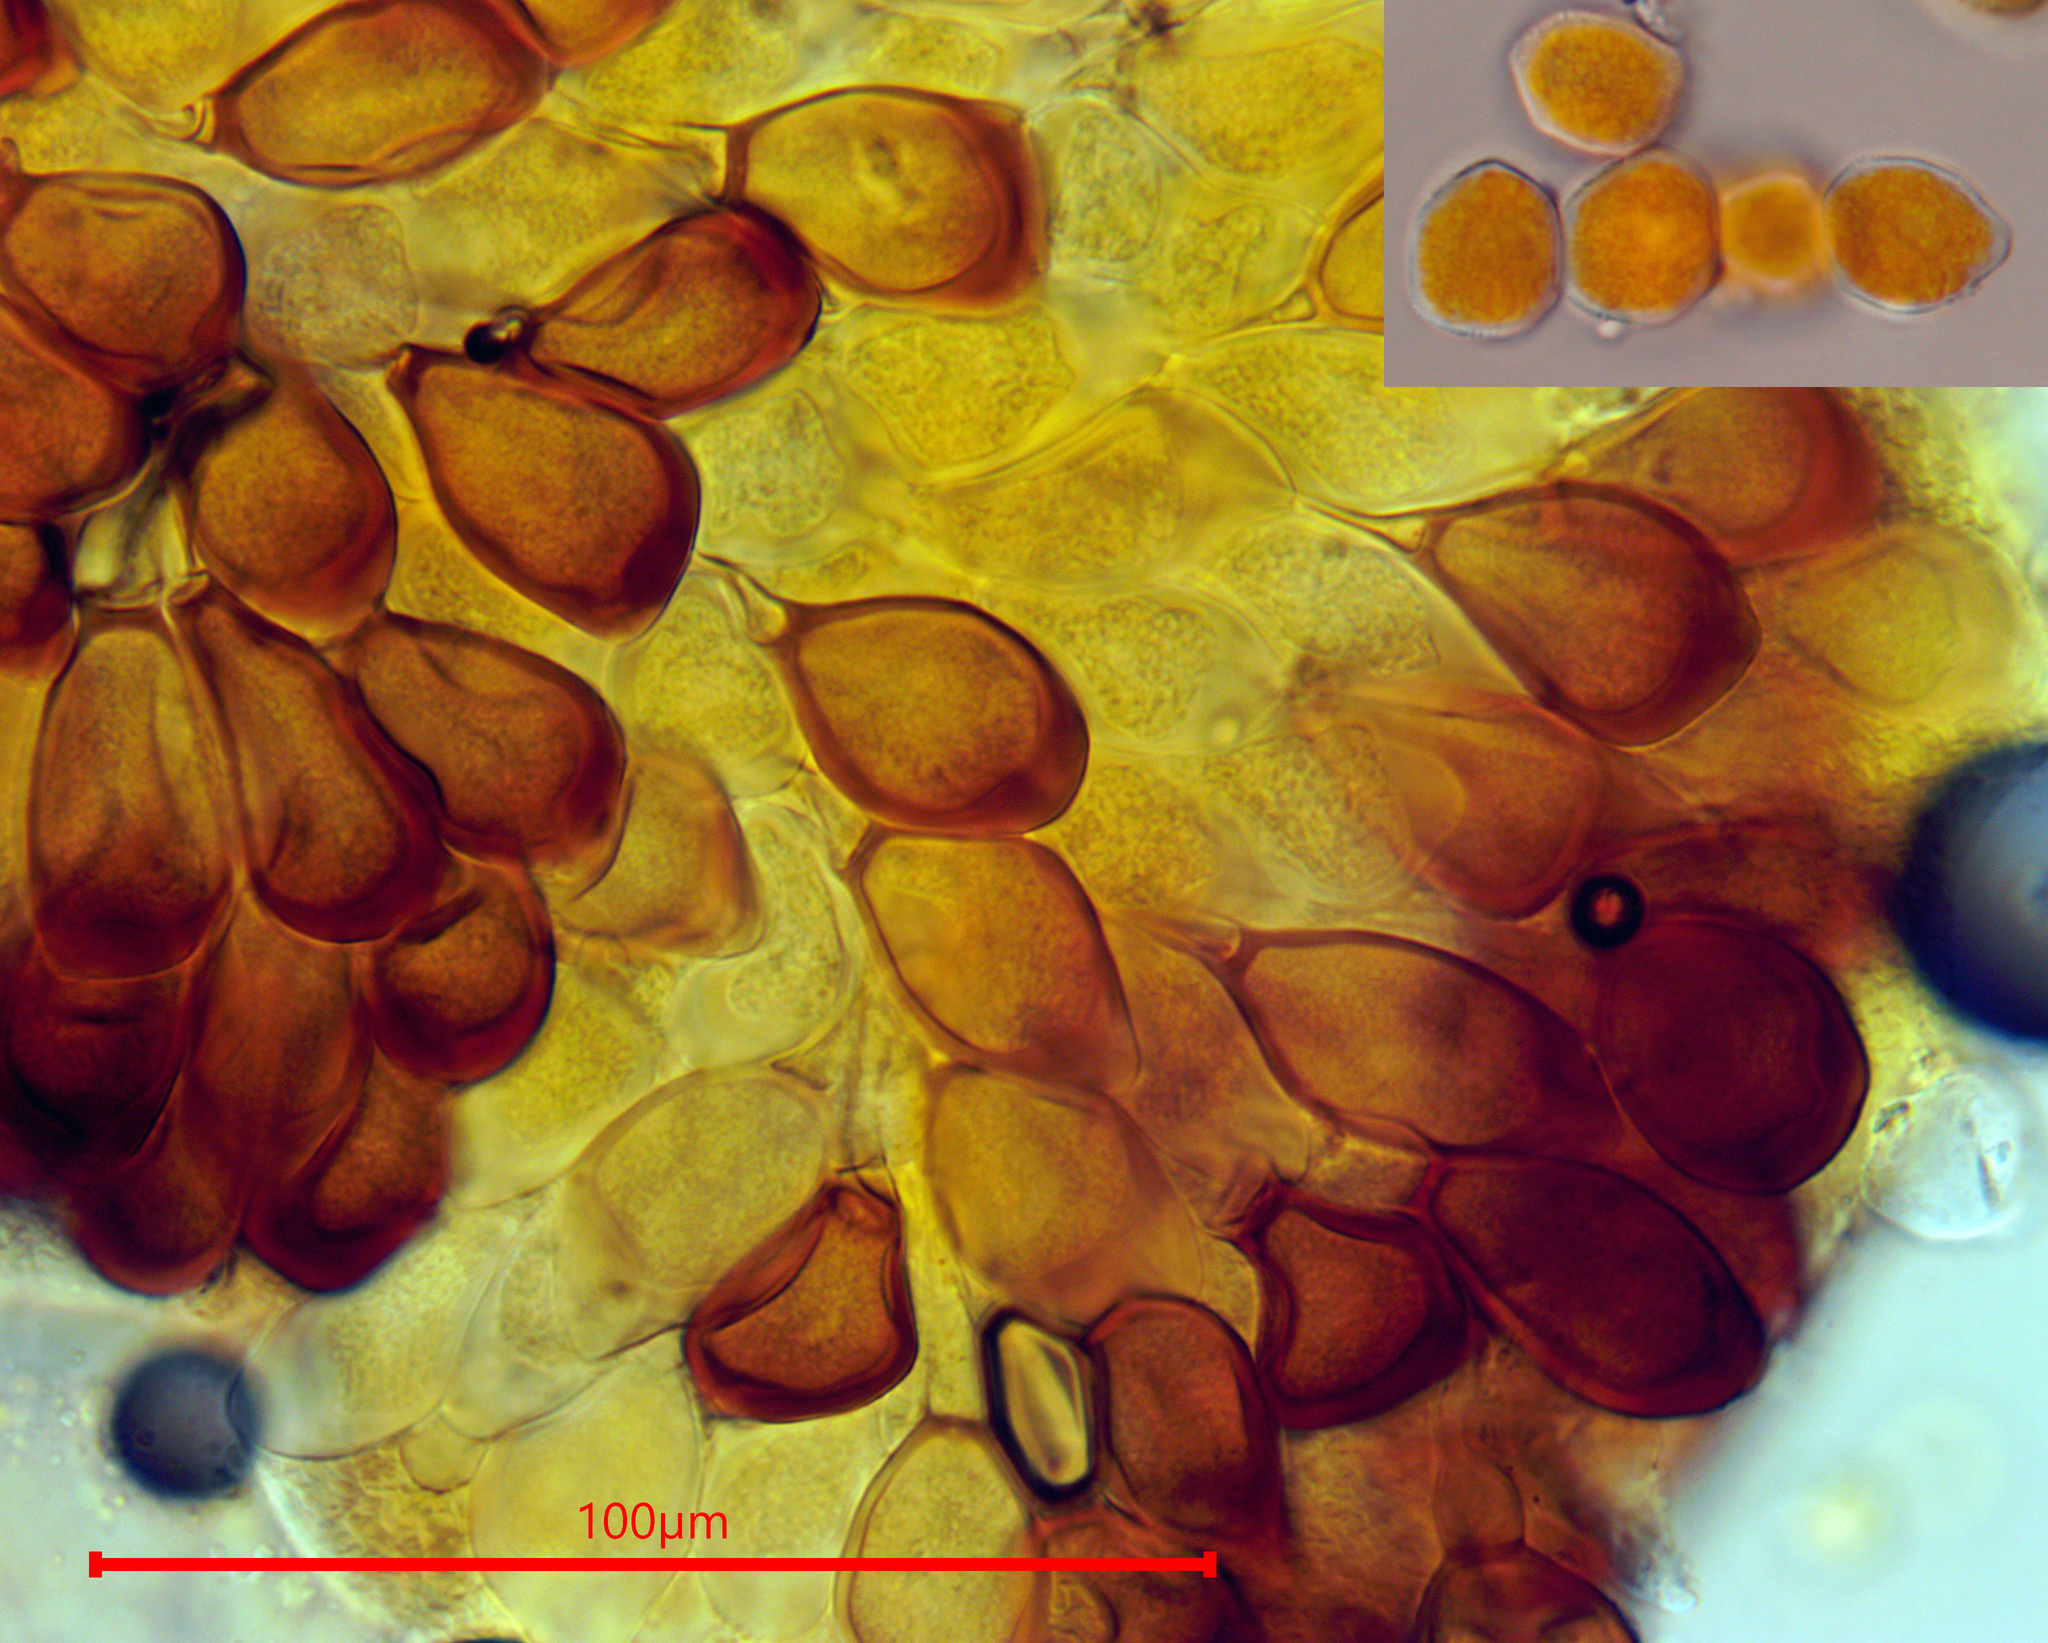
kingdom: Fungi
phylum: Basidiomycota
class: Pucciniomycetes
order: Pucciniales
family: Pucciniaceae
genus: Uromyces
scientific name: Uromyces scaevolae
